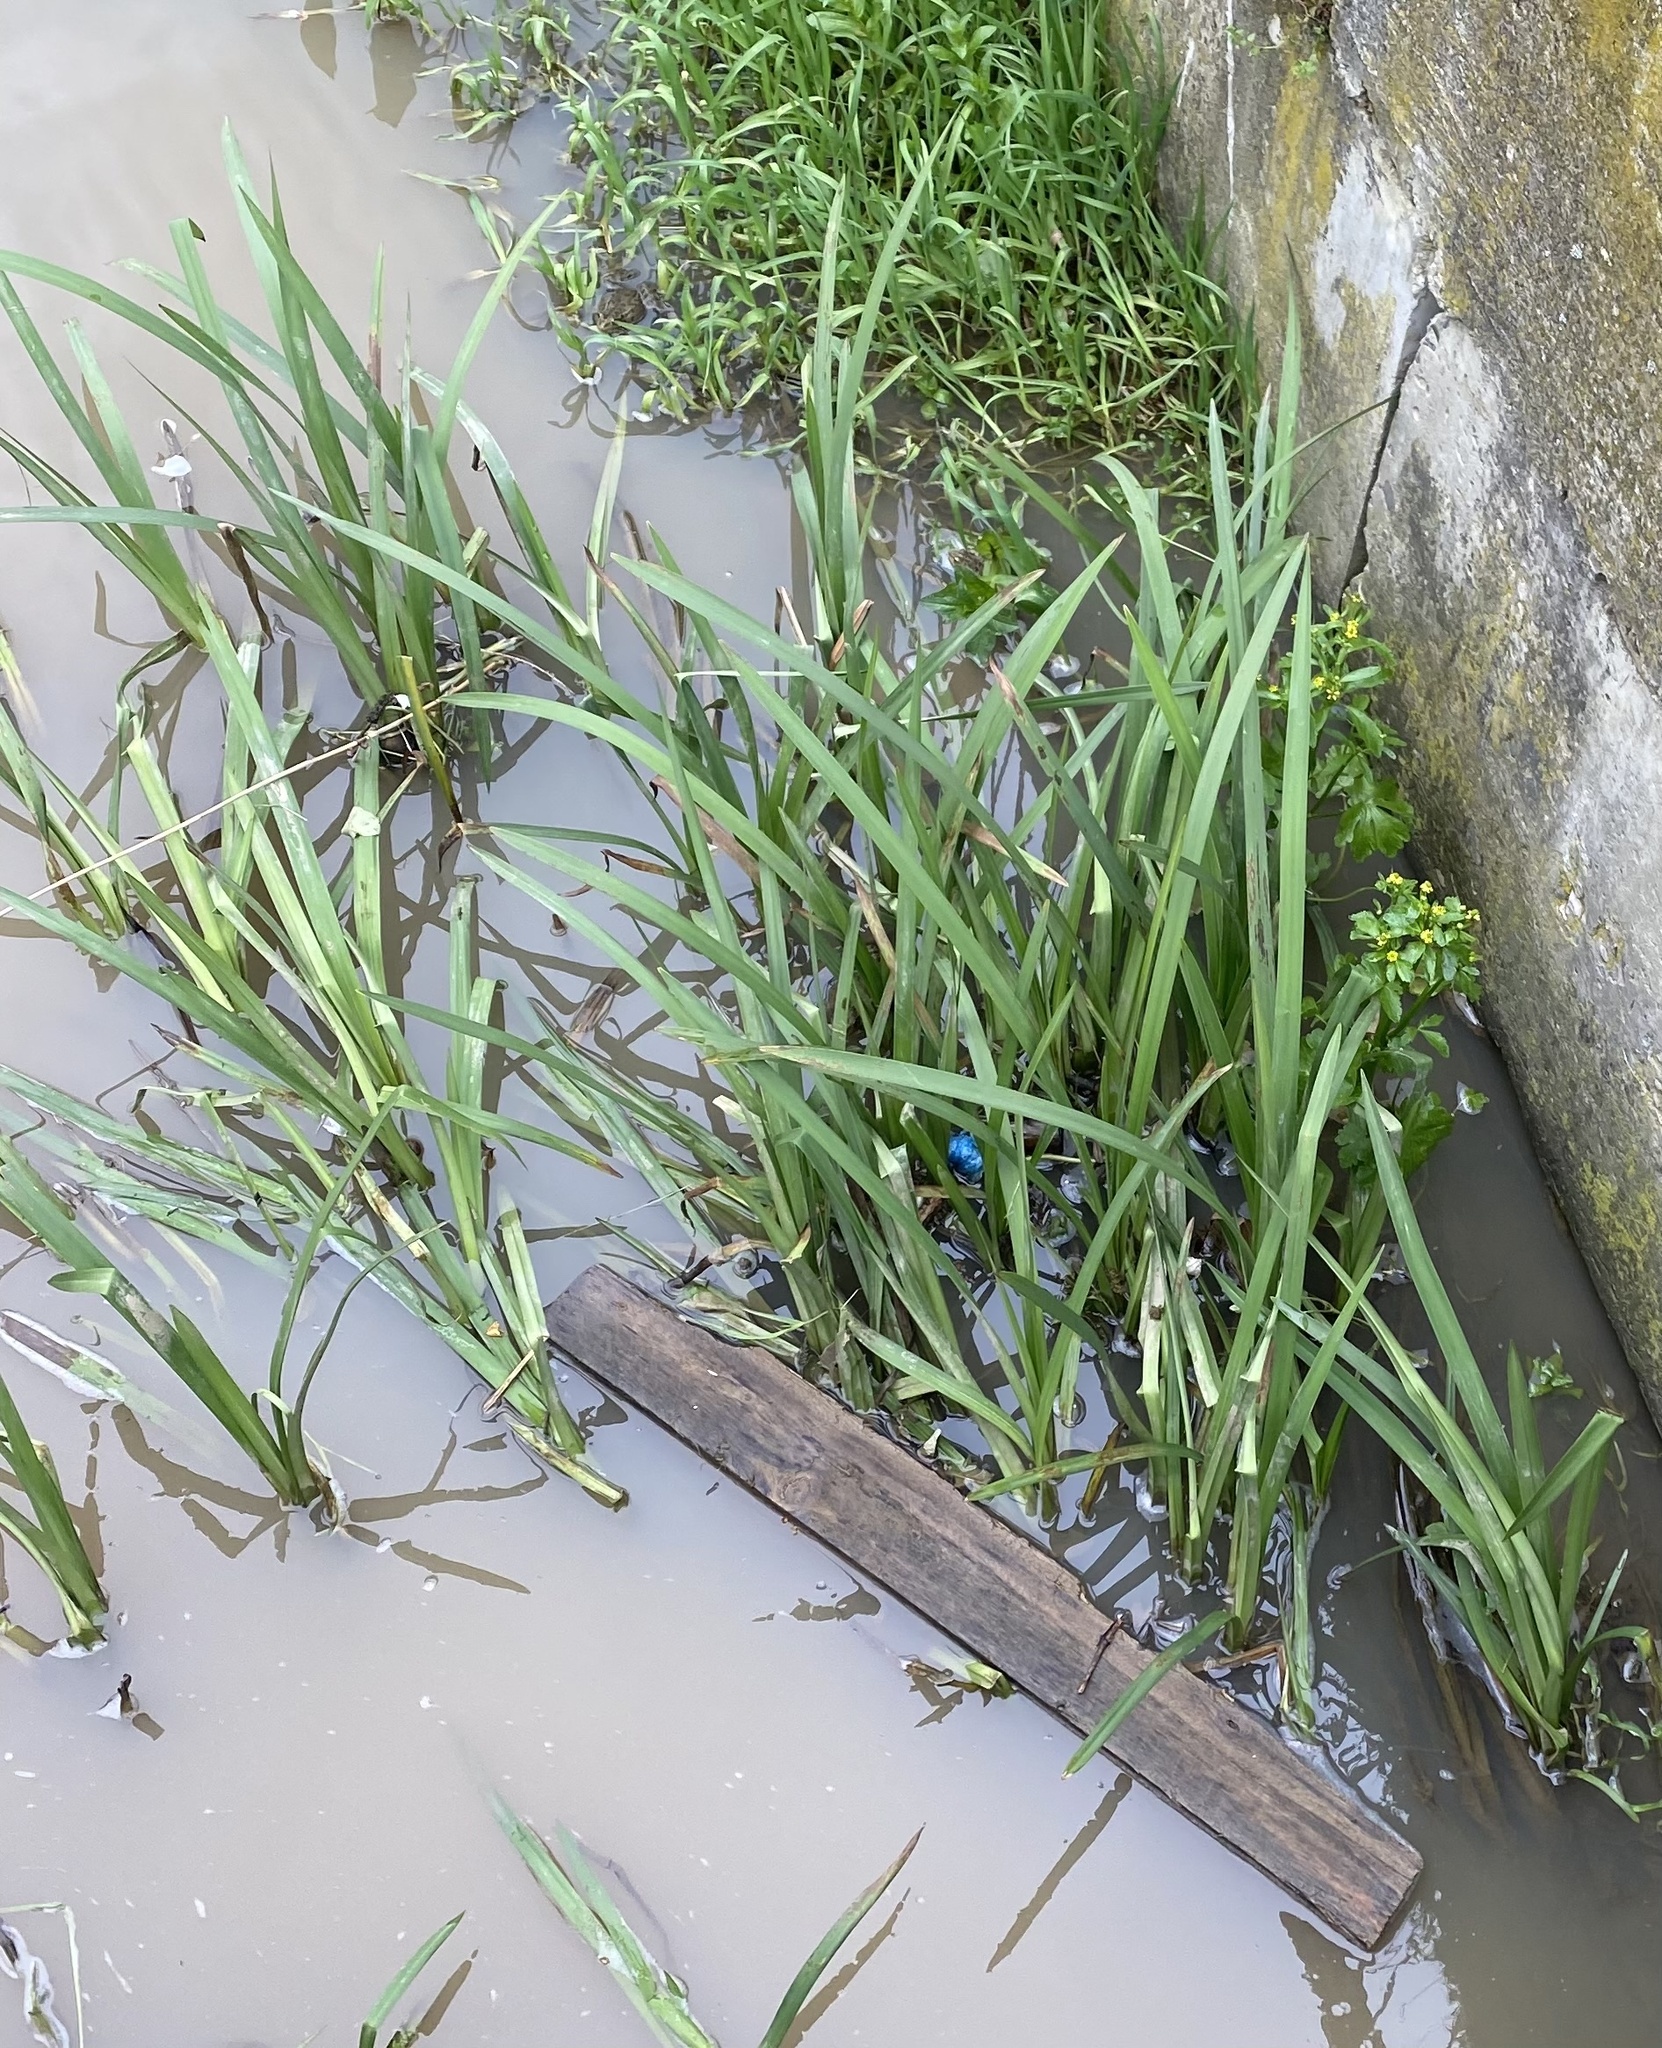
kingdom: Plantae
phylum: Tracheophyta
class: Liliopsida
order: Poales
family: Typhaceae
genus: Sparganium
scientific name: Sparganium erectum
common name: Branched bur-reed
